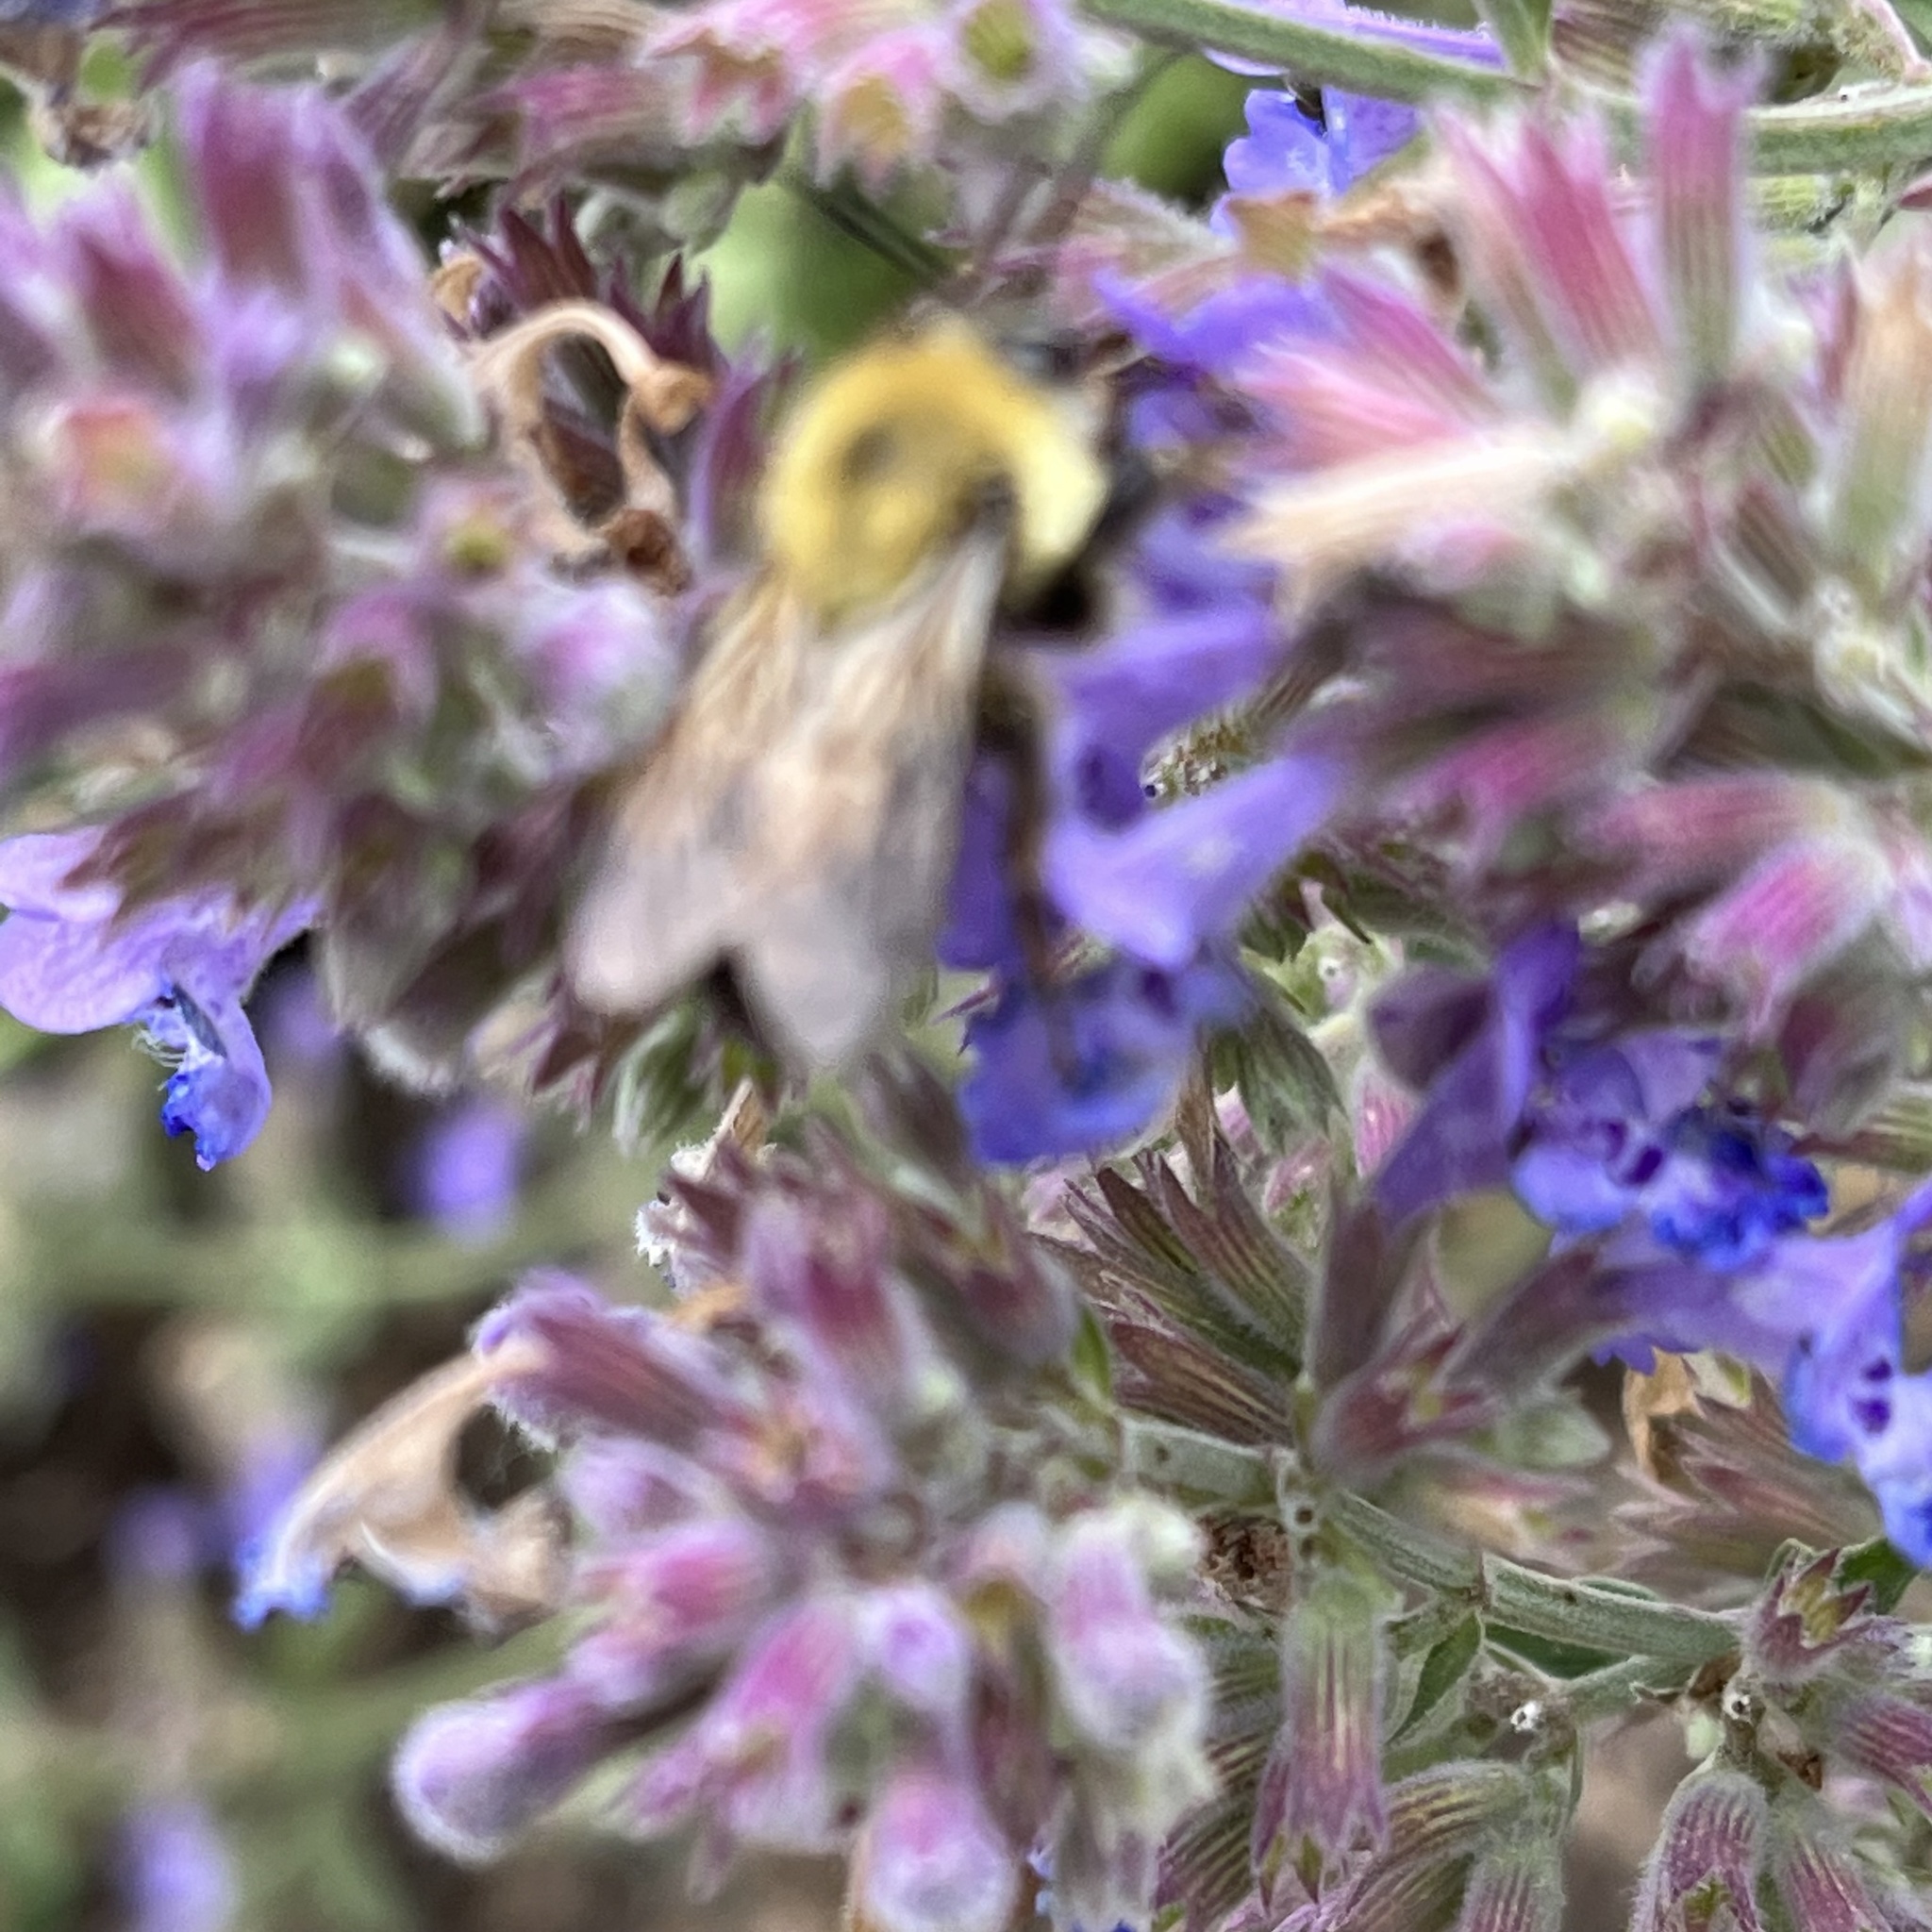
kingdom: Animalia
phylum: Arthropoda
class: Insecta
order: Hymenoptera
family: Apidae
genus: Bombus
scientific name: Bombus bimaculatus
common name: Two-spotted bumble bee
